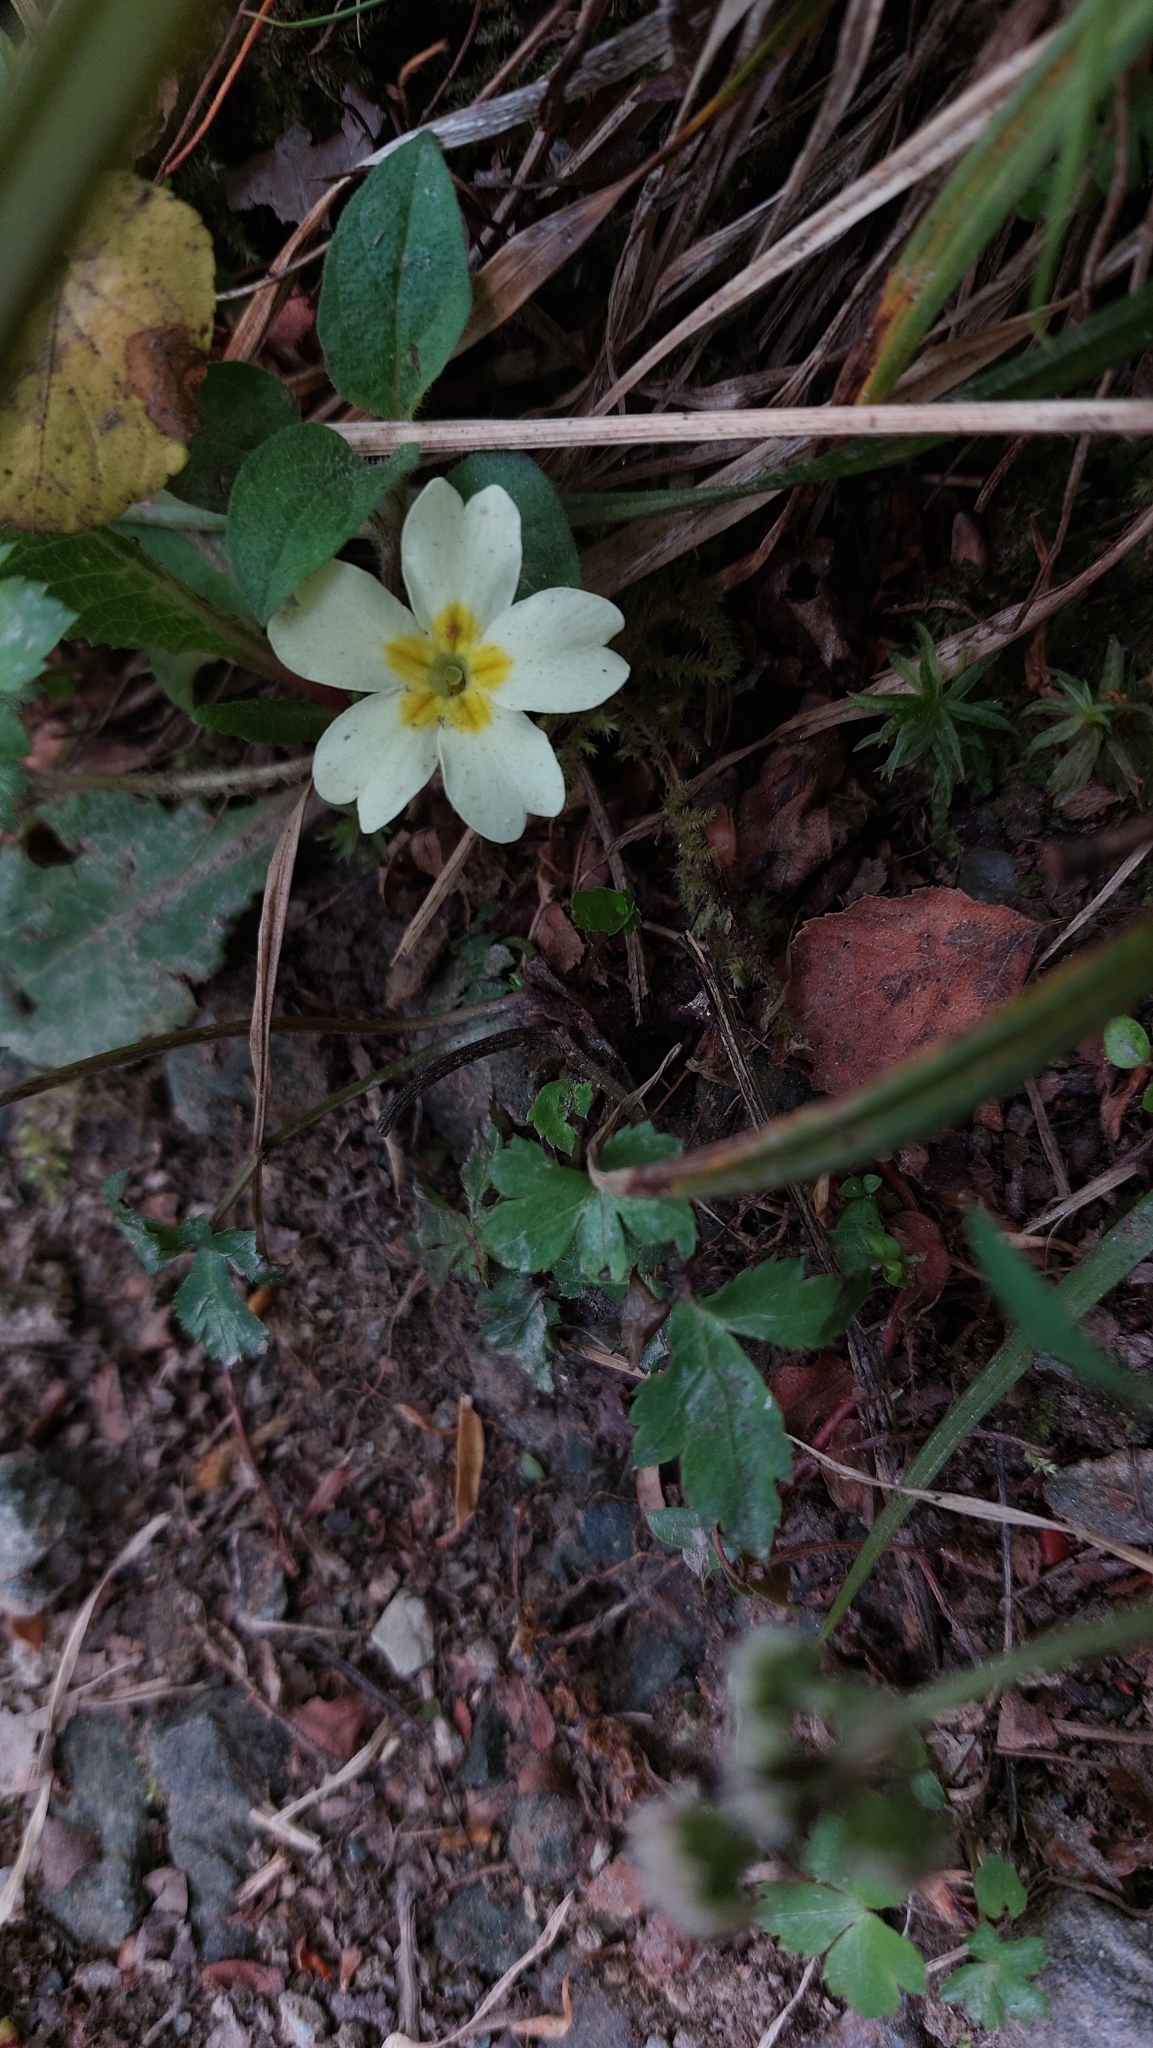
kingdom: Plantae
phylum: Tracheophyta
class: Magnoliopsida
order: Ericales
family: Primulaceae
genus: Primula
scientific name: Primula vulgaris
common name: Primrose
